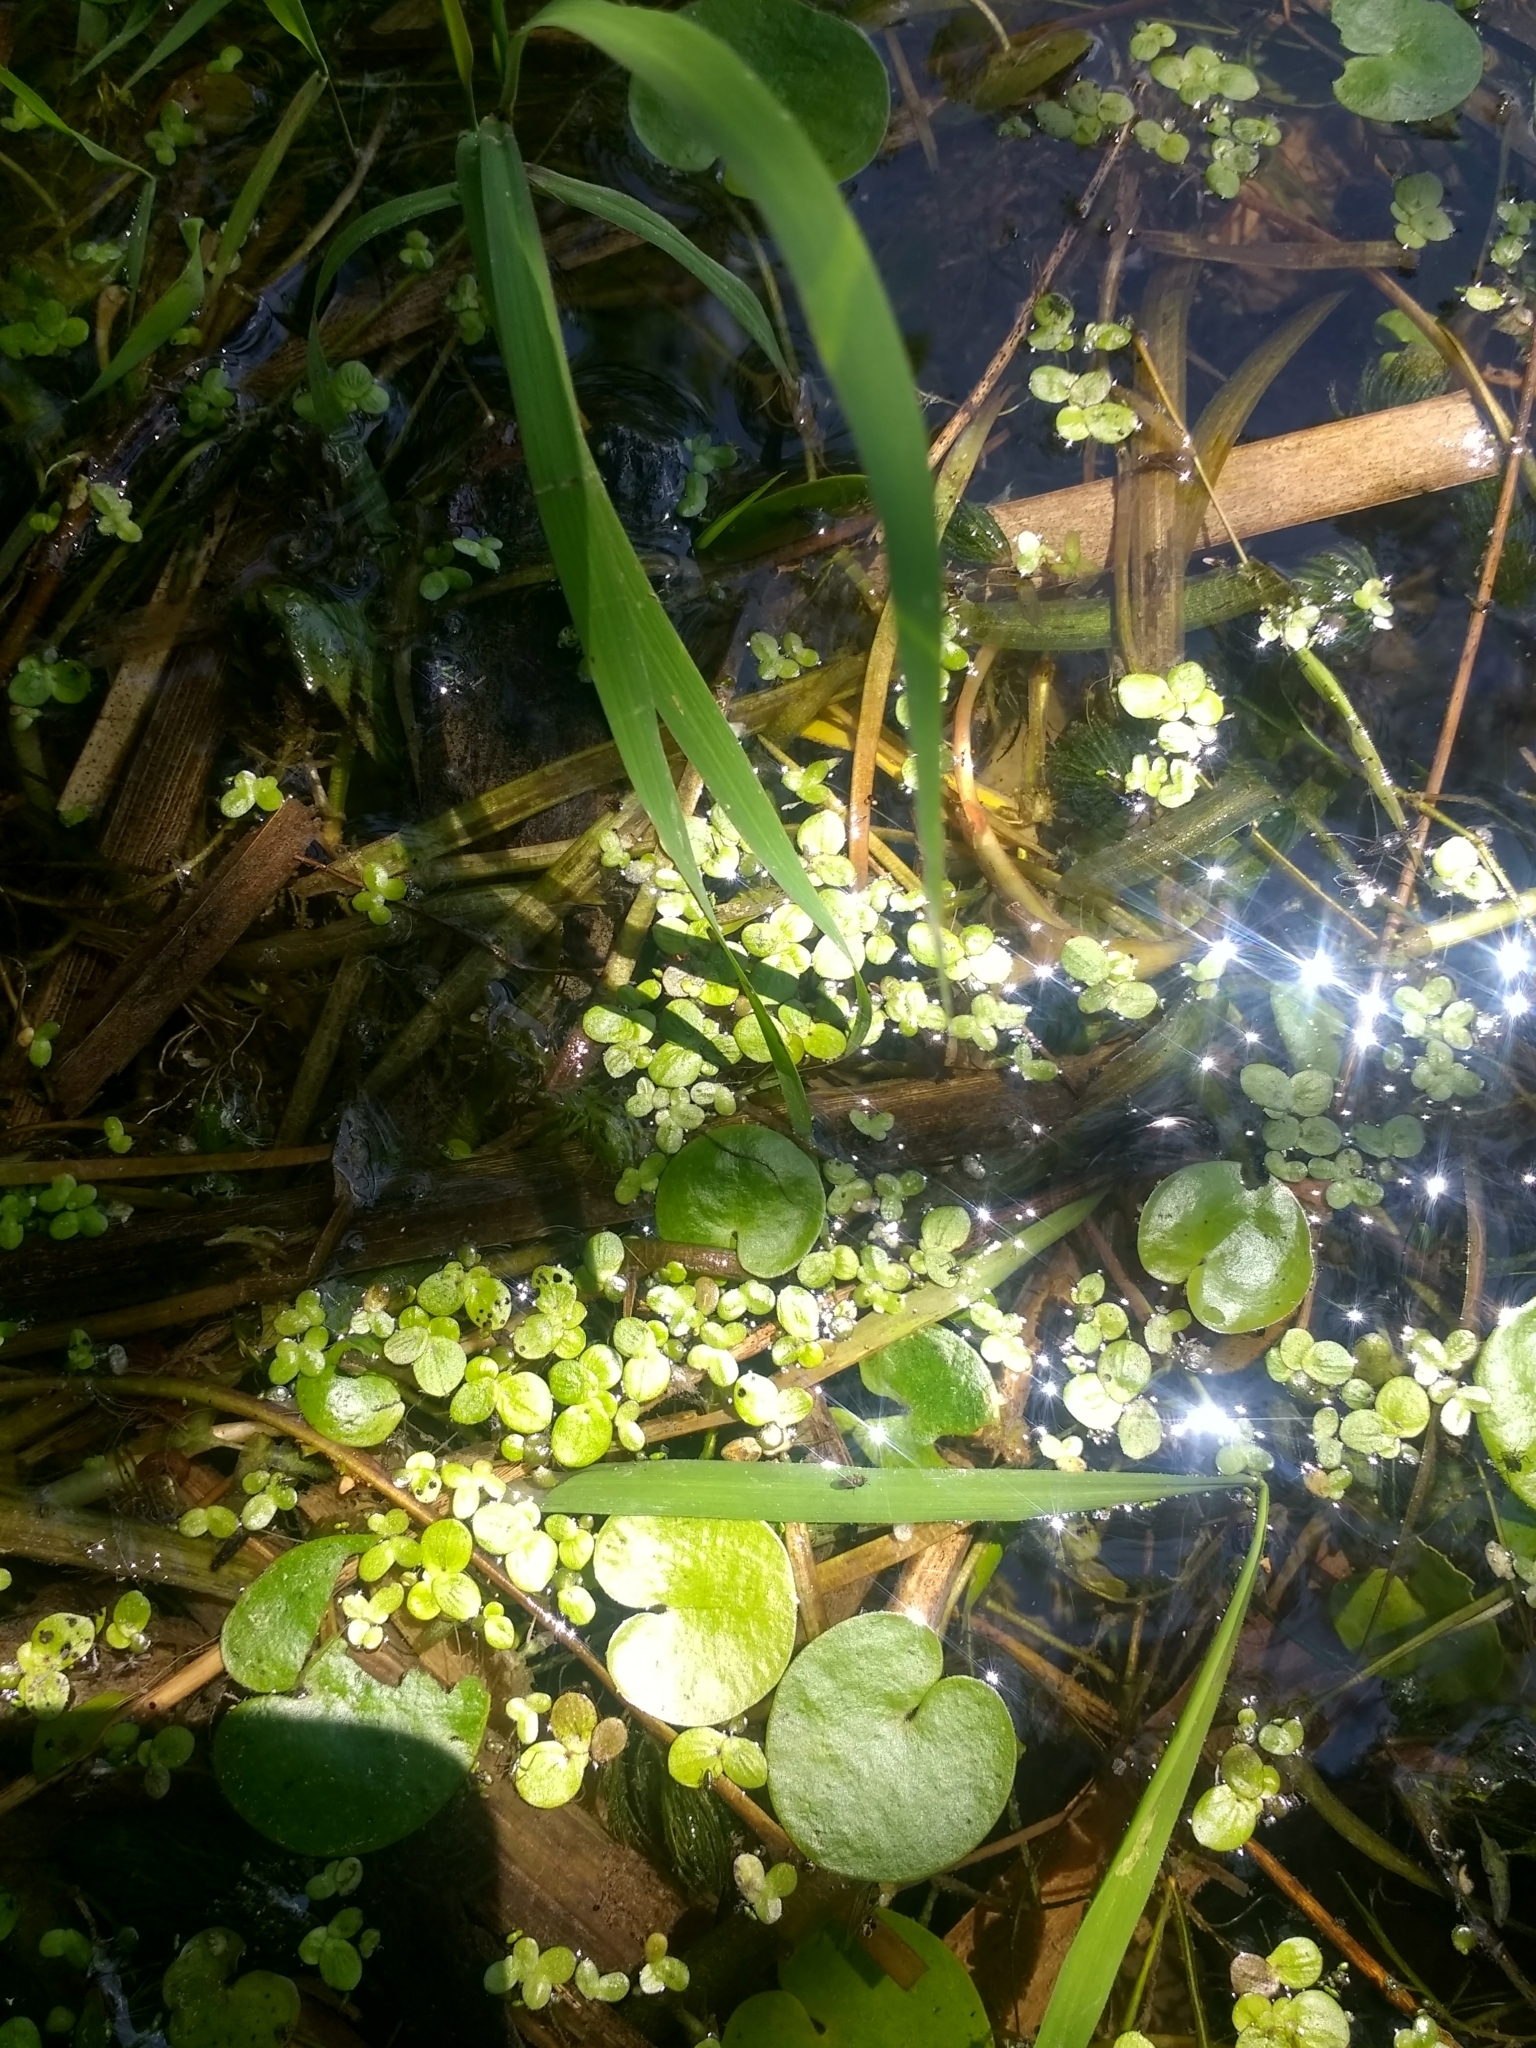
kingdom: Plantae
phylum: Tracheophyta
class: Liliopsida
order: Alismatales
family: Araceae
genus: Spirodela
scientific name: Spirodela polyrhiza
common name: Great duckweed
